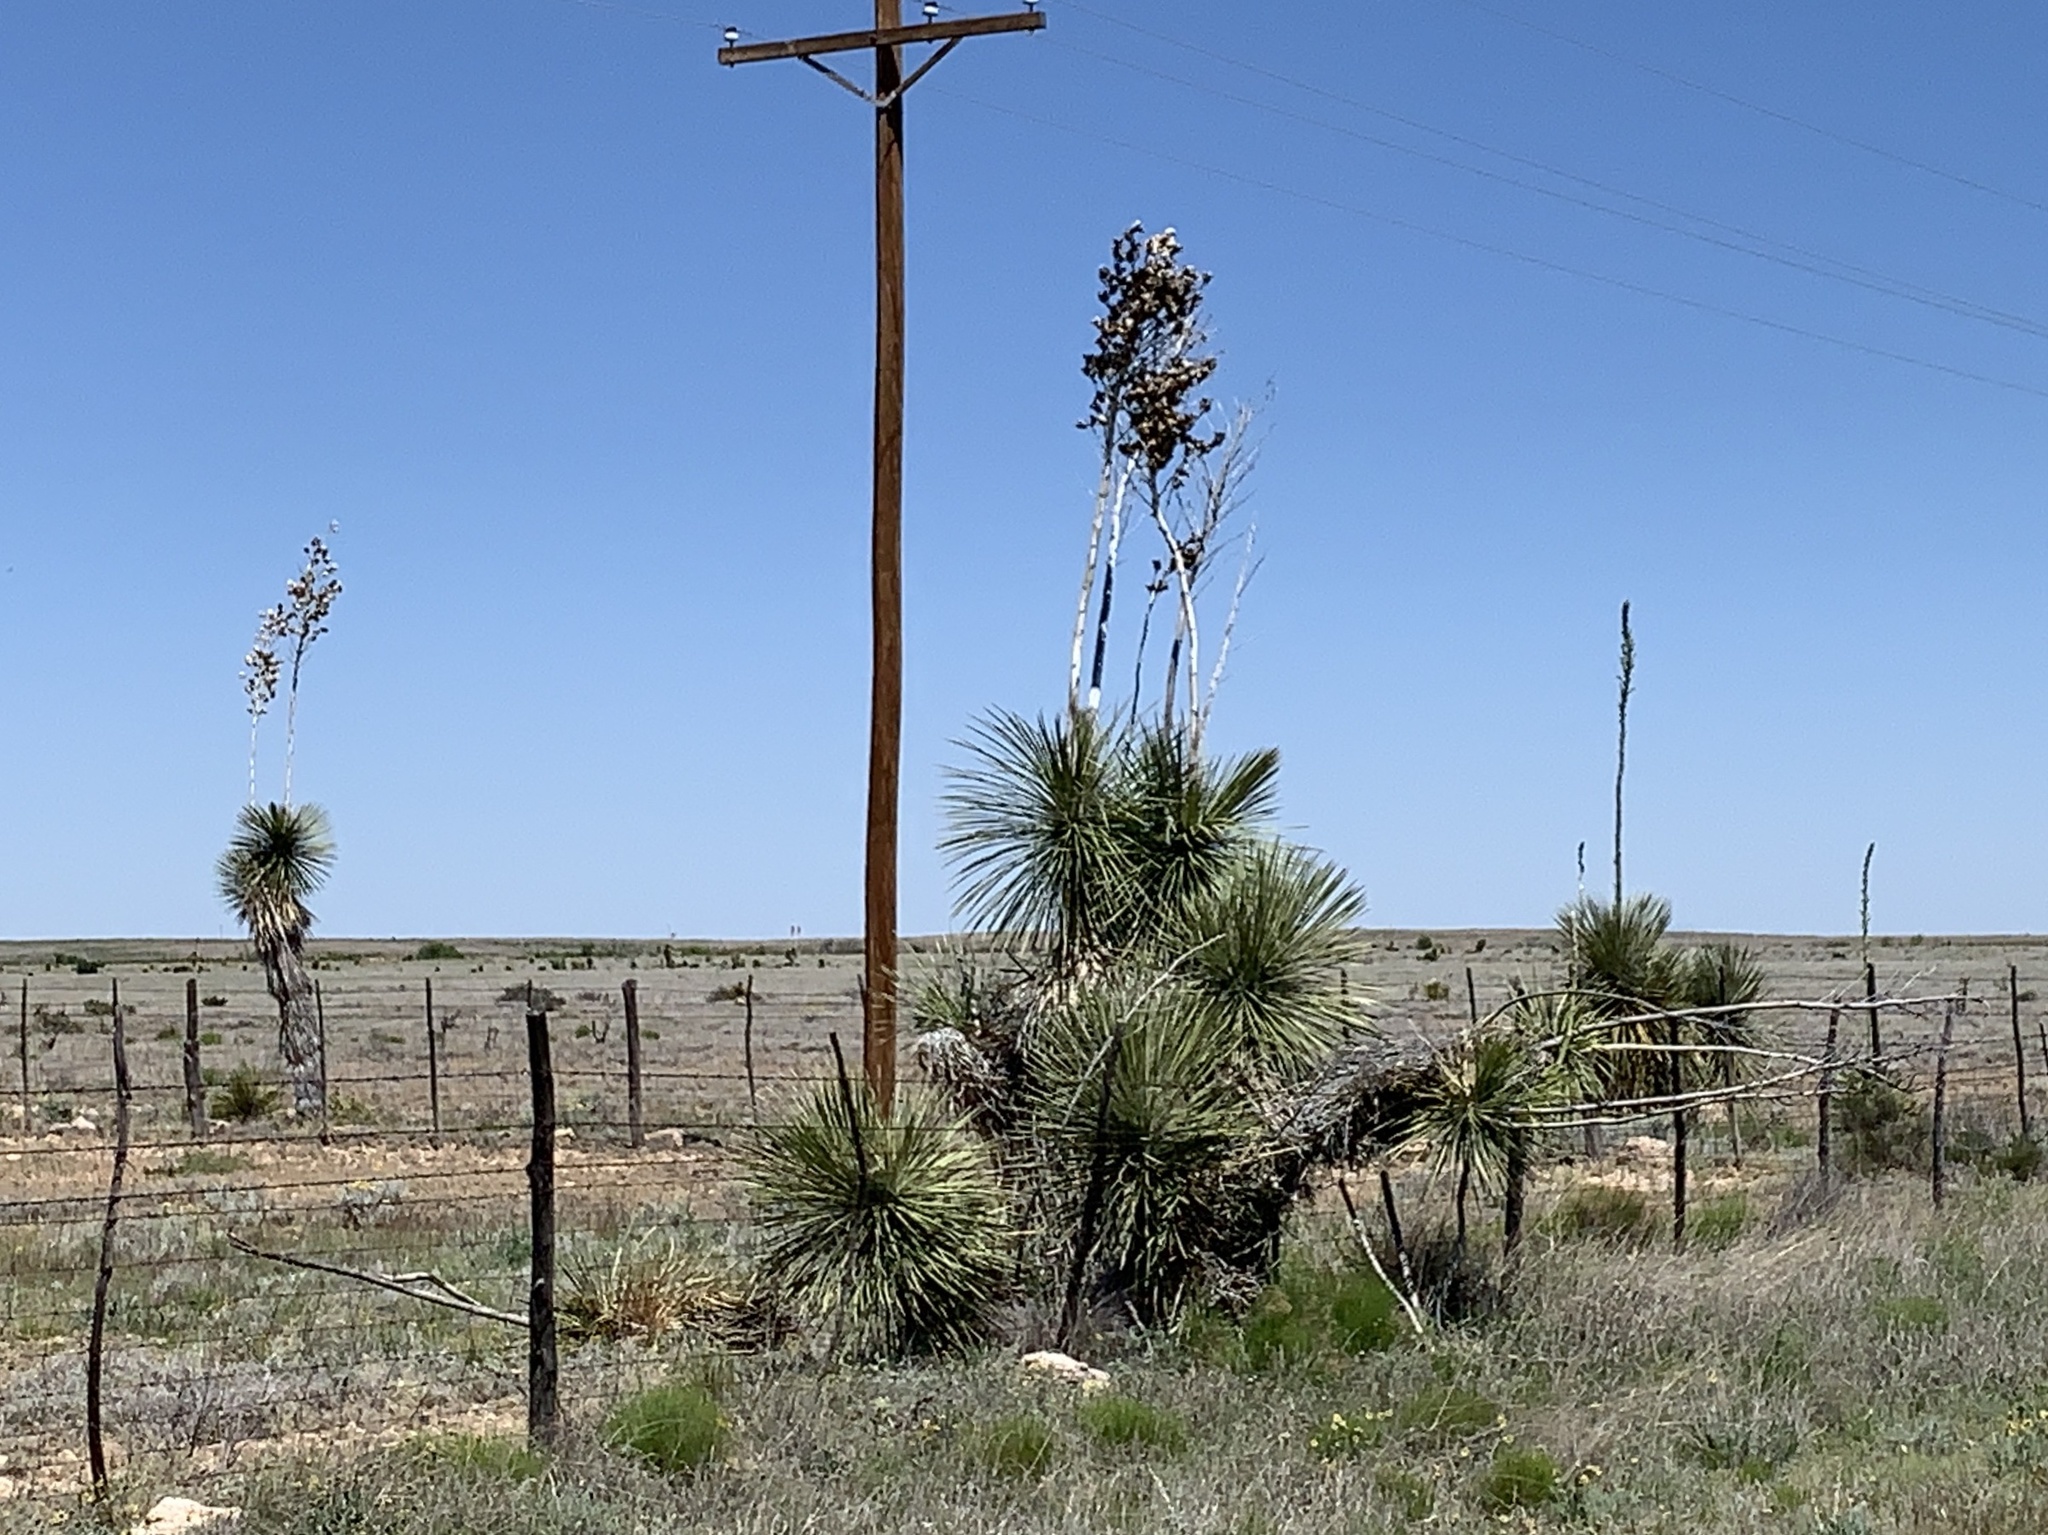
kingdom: Plantae
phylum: Tracheophyta
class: Liliopsida
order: Asparagales
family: Asparagaceae
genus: Yucca
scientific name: Yucca elata
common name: Palmella
